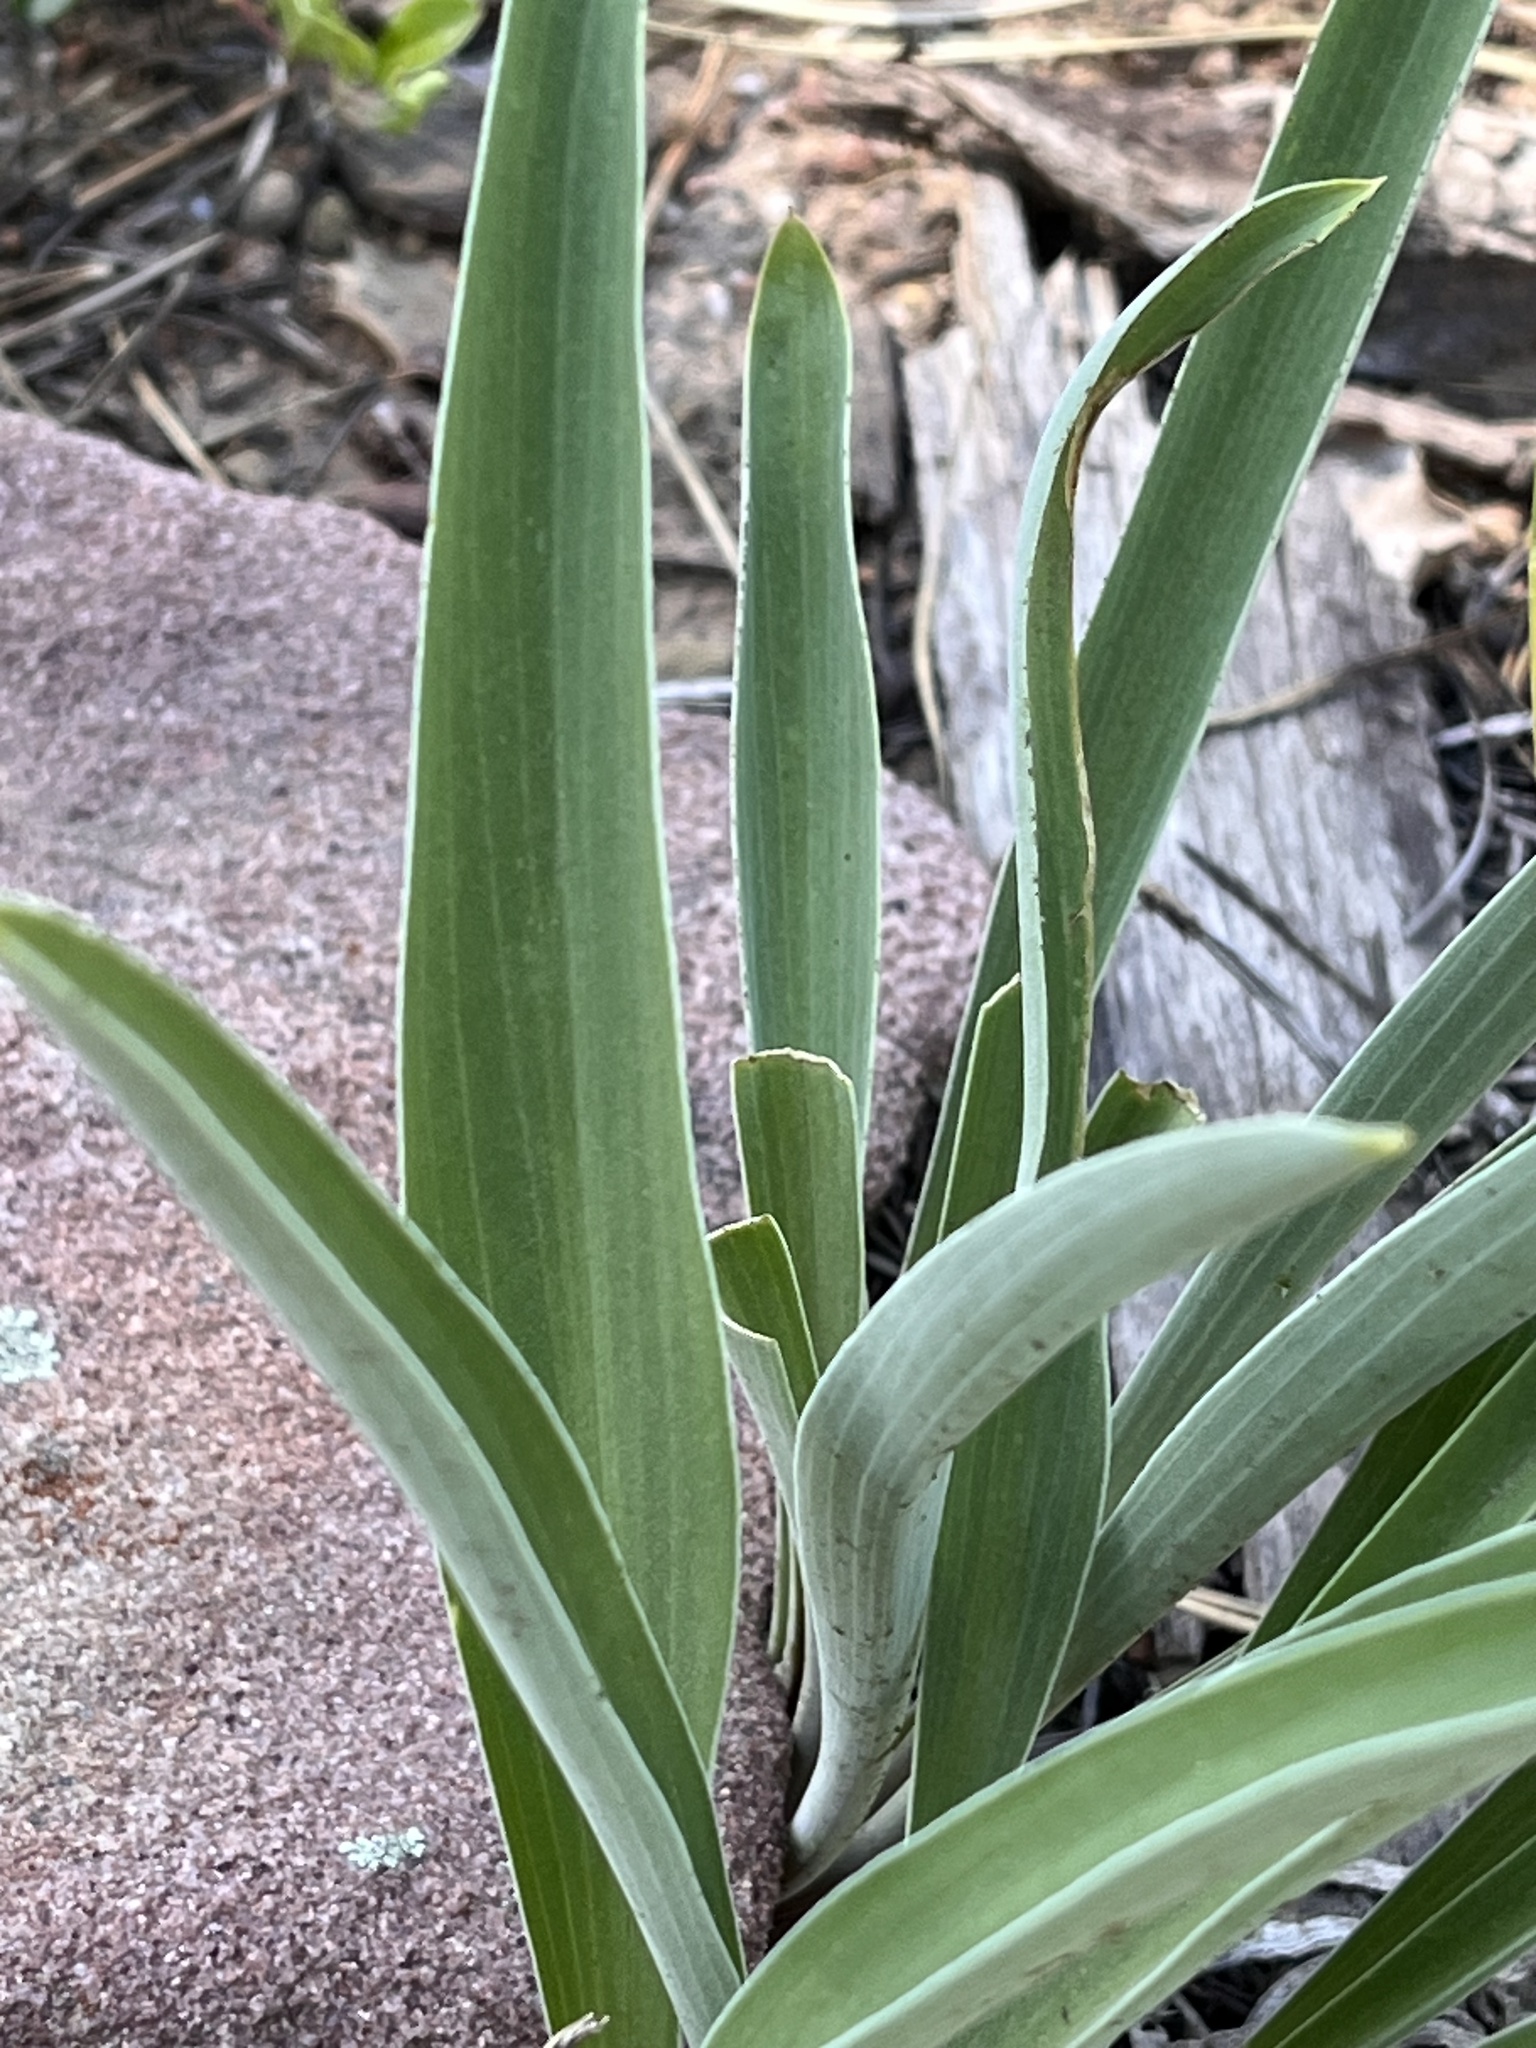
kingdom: Plantae
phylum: Tracheophyta
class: Magnoliopsida
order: Gentianales
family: Gentianaceae
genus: Frasera
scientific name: Frasera speciosa
